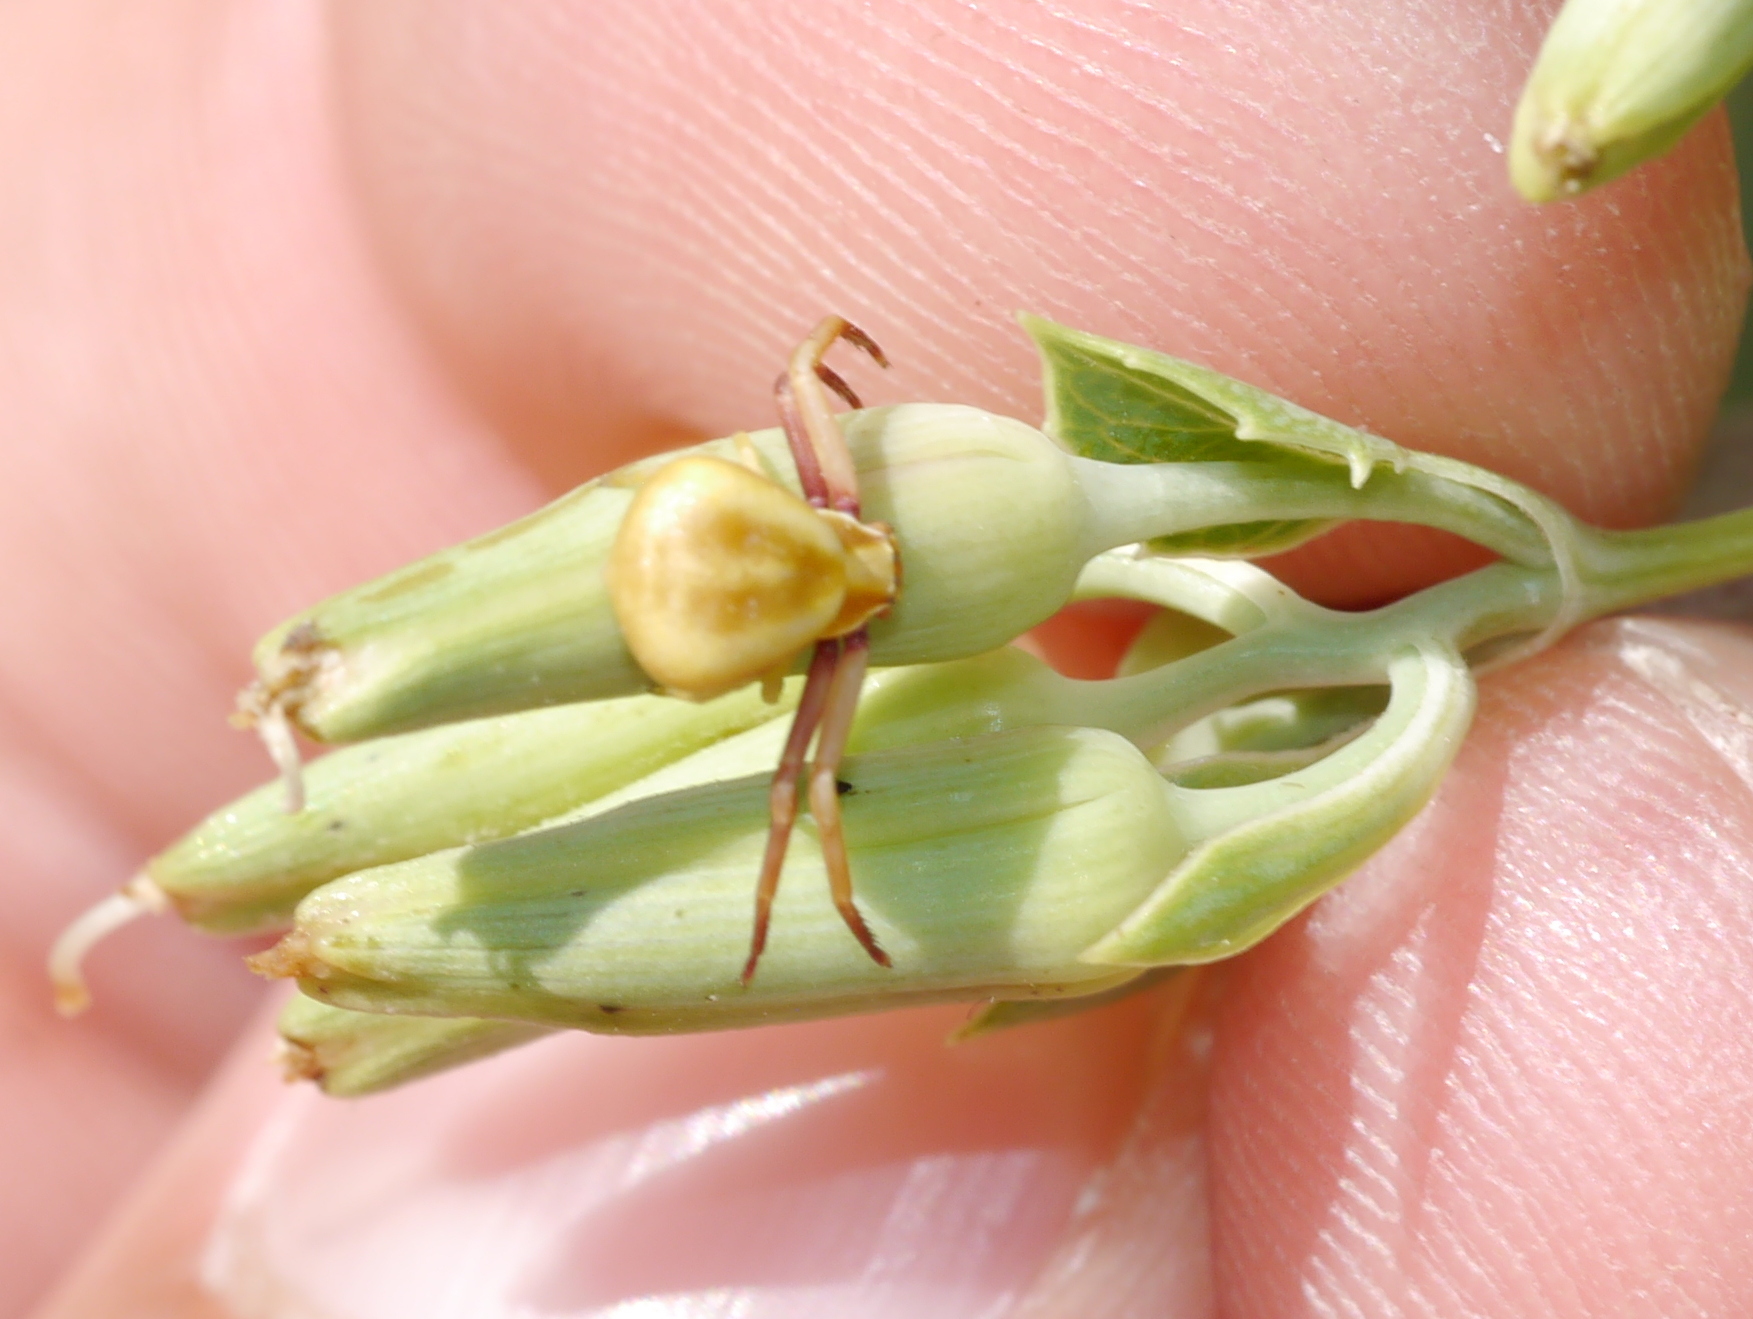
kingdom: Animalia
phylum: Arthropoda
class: Arachnida
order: Araneae
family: Thomisidae
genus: Misumenoides
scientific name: Misumenoides formosipes
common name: White-banded crab spider
